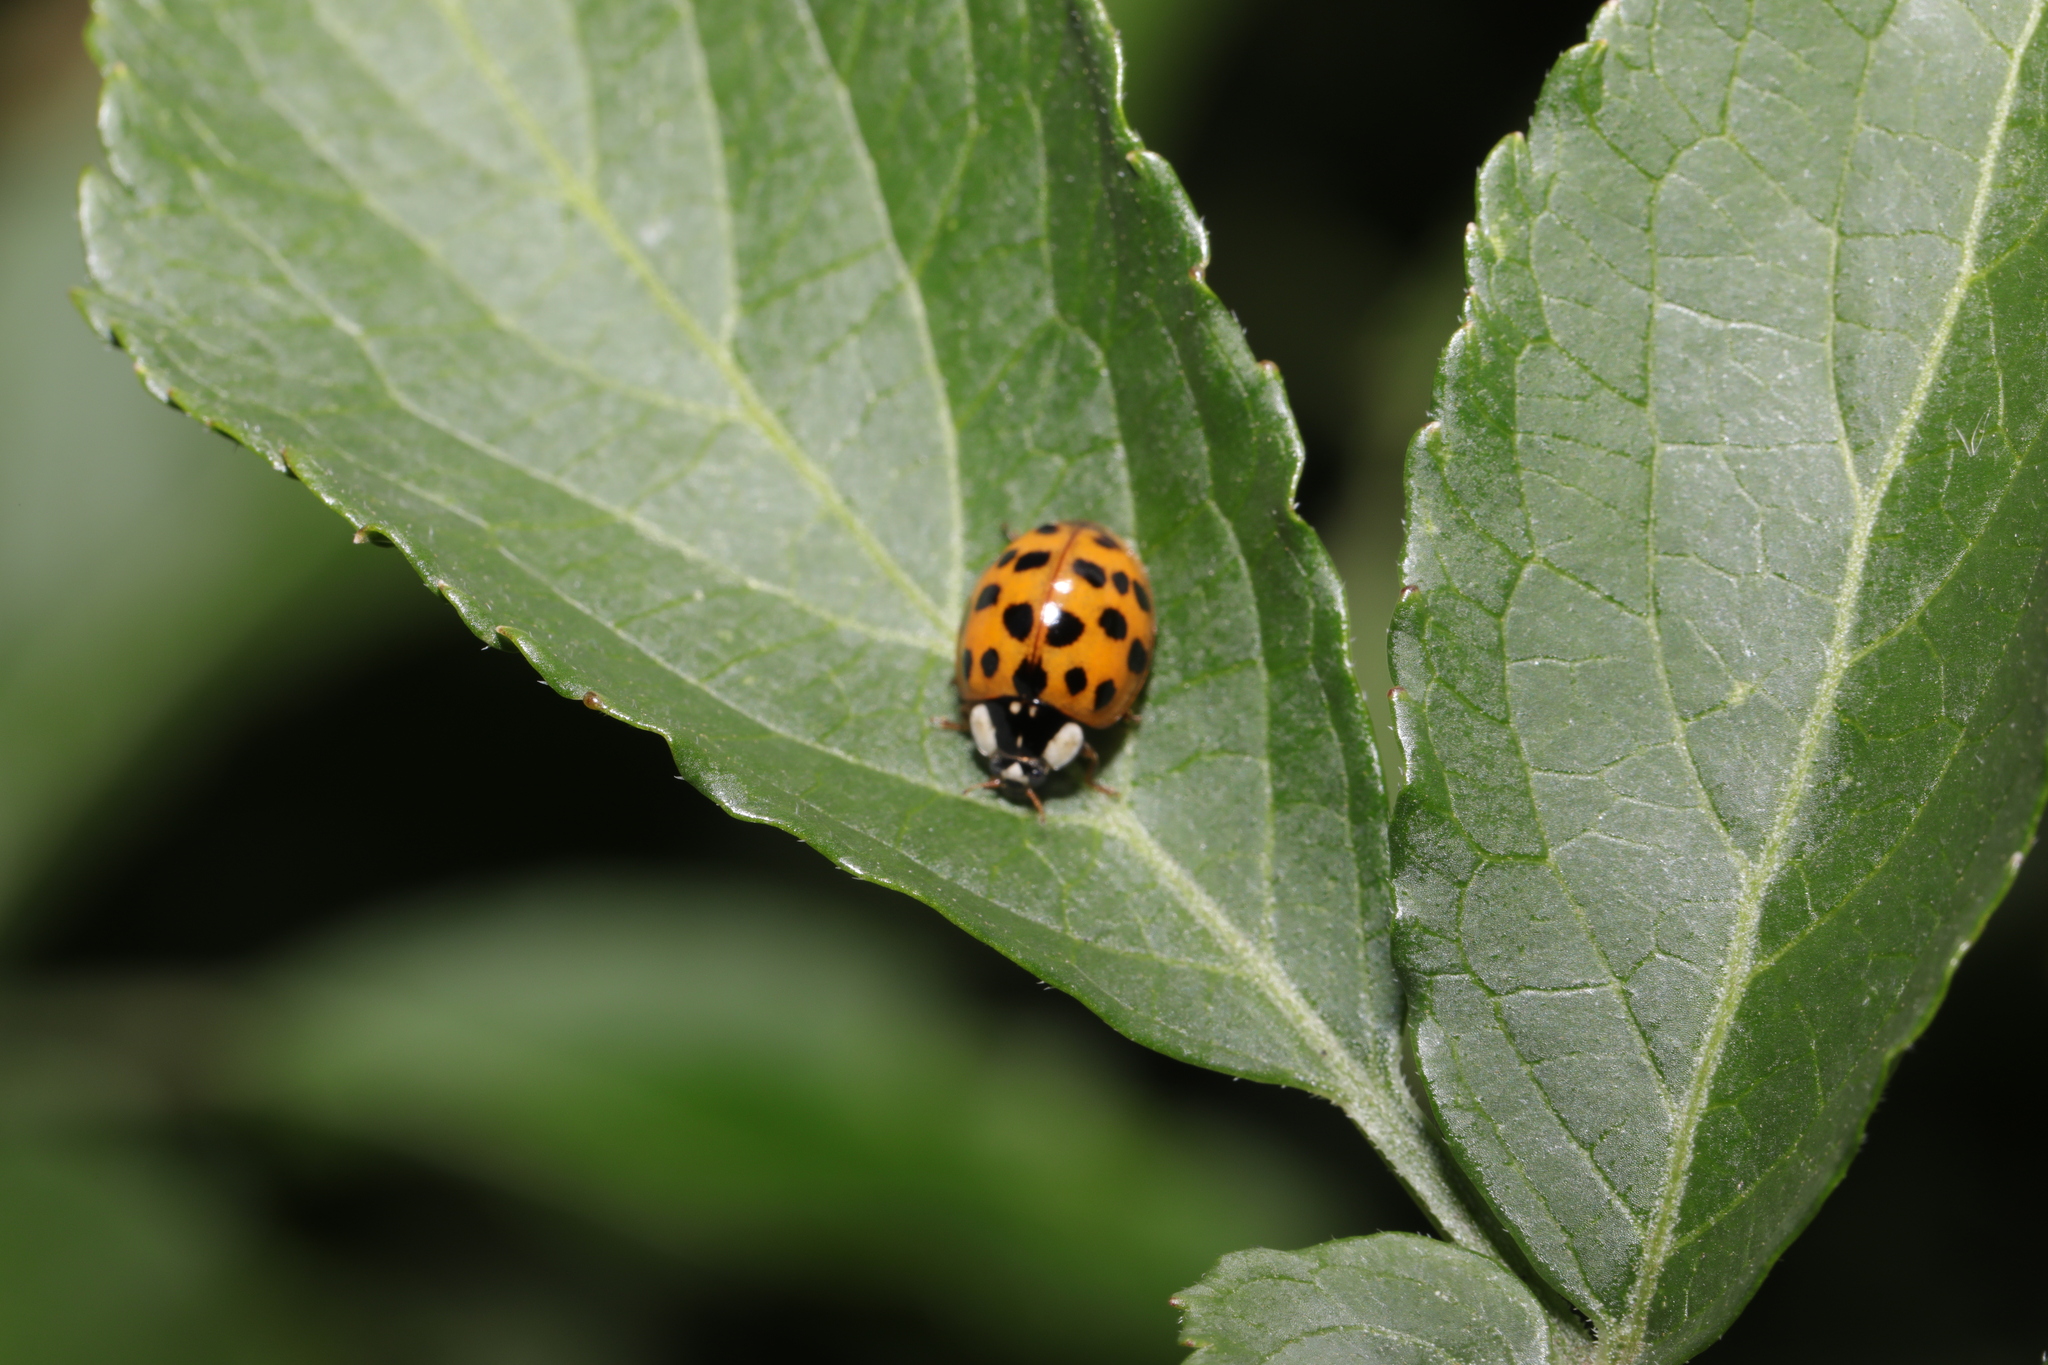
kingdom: Animalia
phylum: Arthropoda
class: Insecta
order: Coleoptera
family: Coccinellidae
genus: Harmonia
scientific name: Harmonia axyridis
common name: Harlequin ladybird
